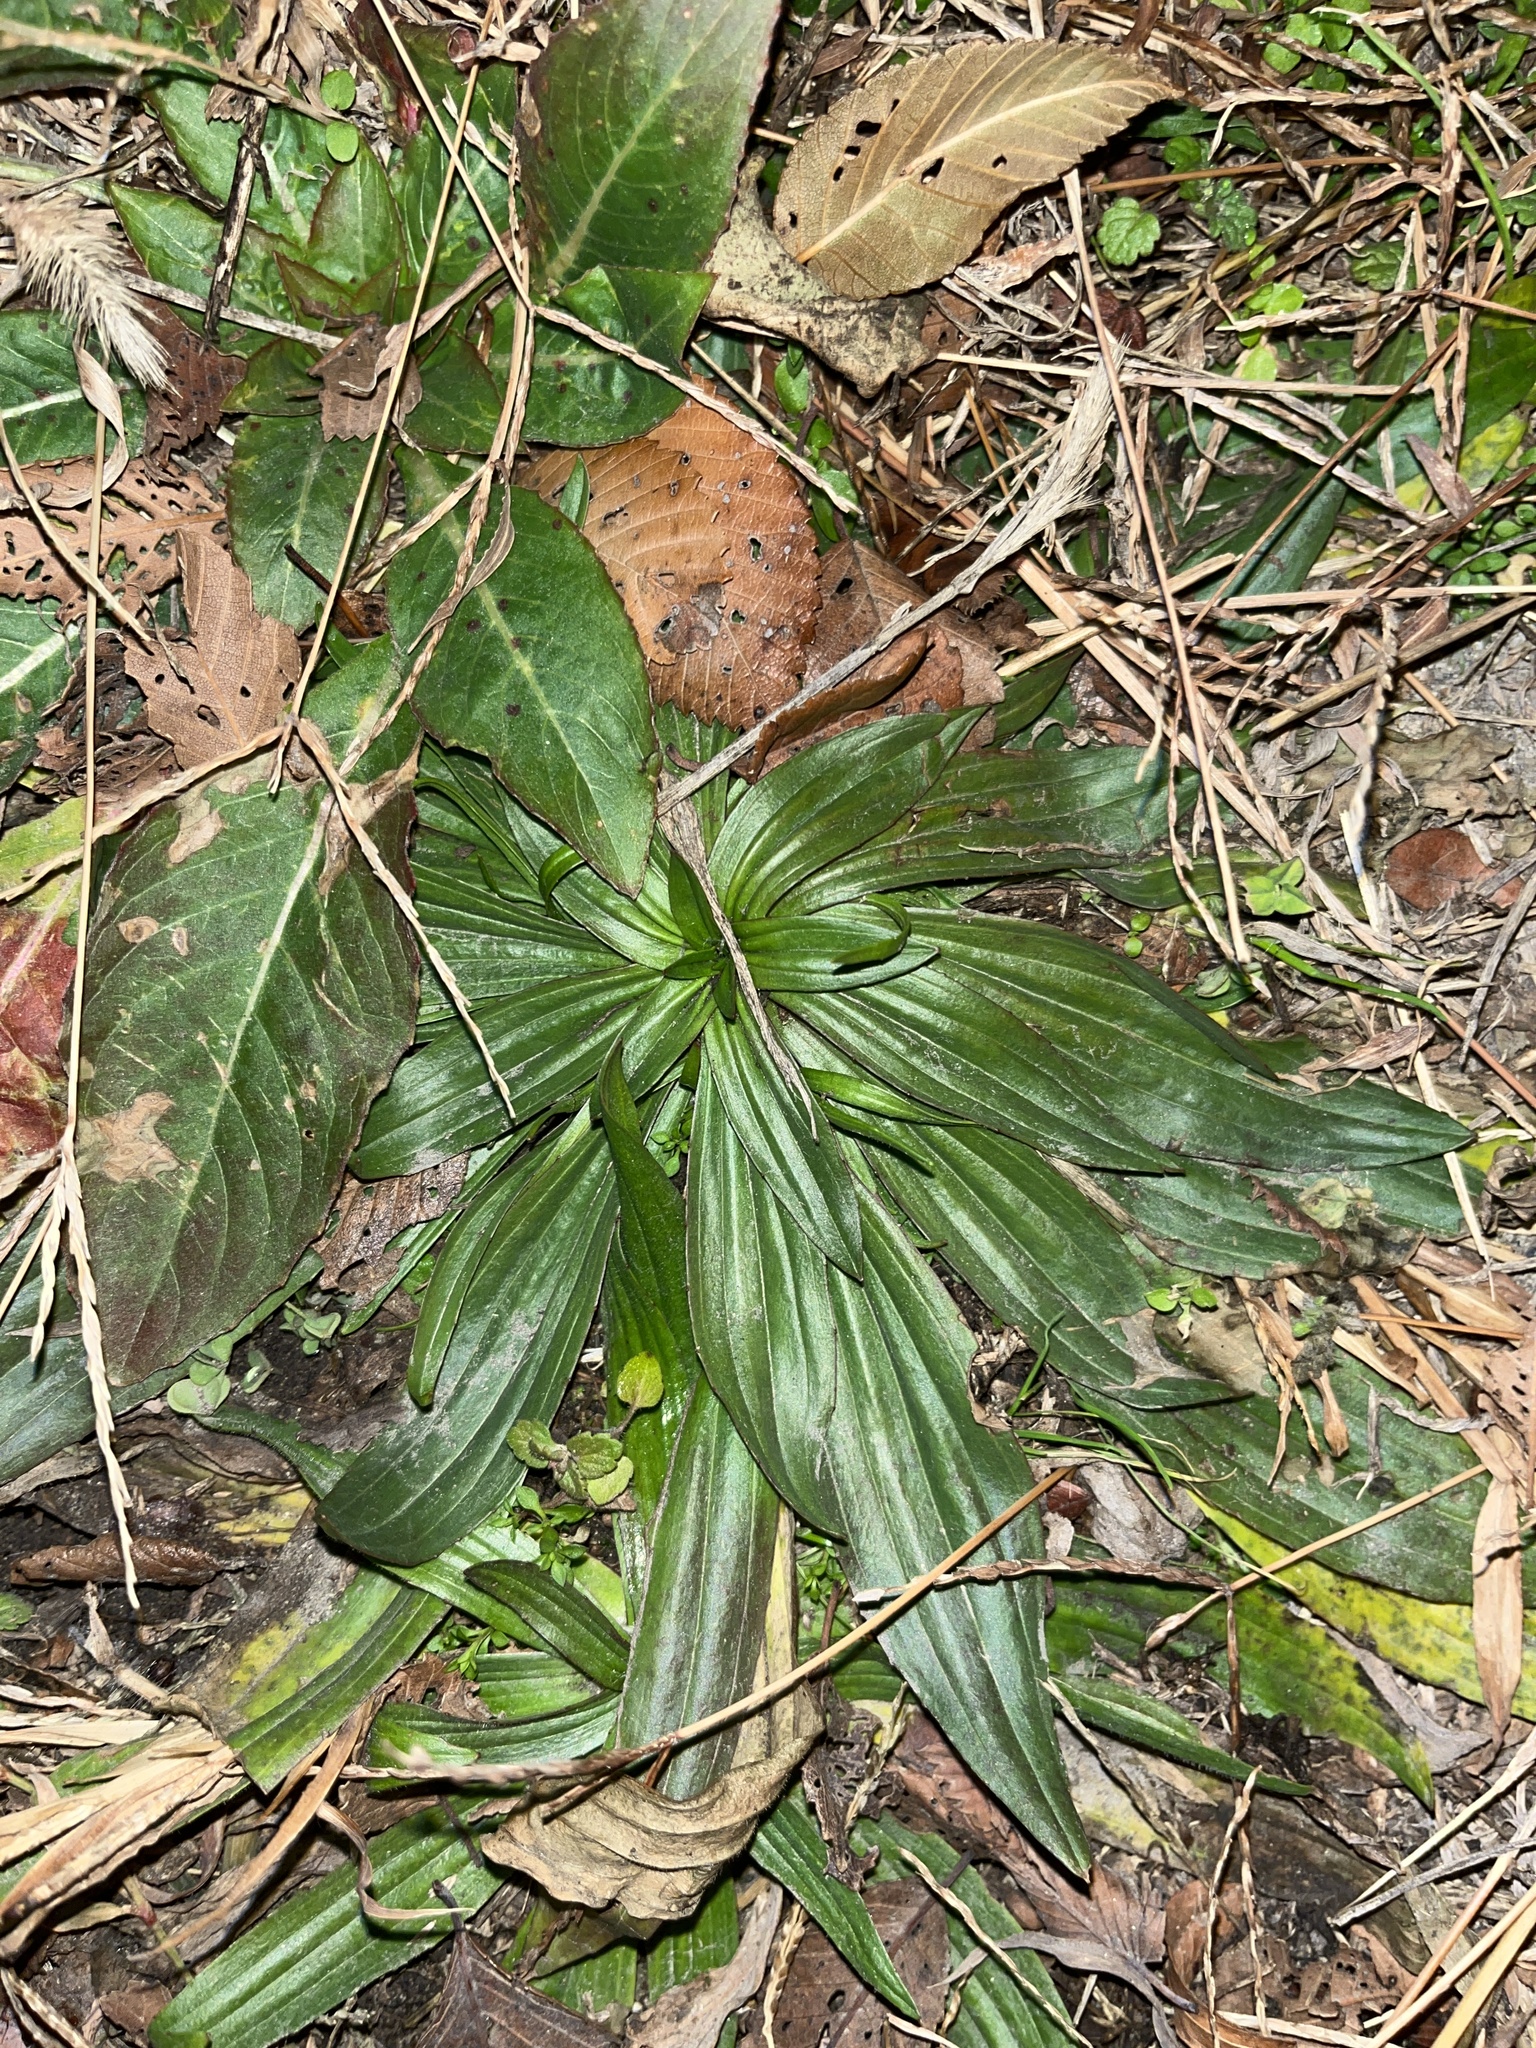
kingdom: Plantae
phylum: Tracheophyta
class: Magnoliopsida
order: Lamiales
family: Plantaginaceae
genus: Plantago
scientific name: Plantago lanceolata
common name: Ribwort plantain
